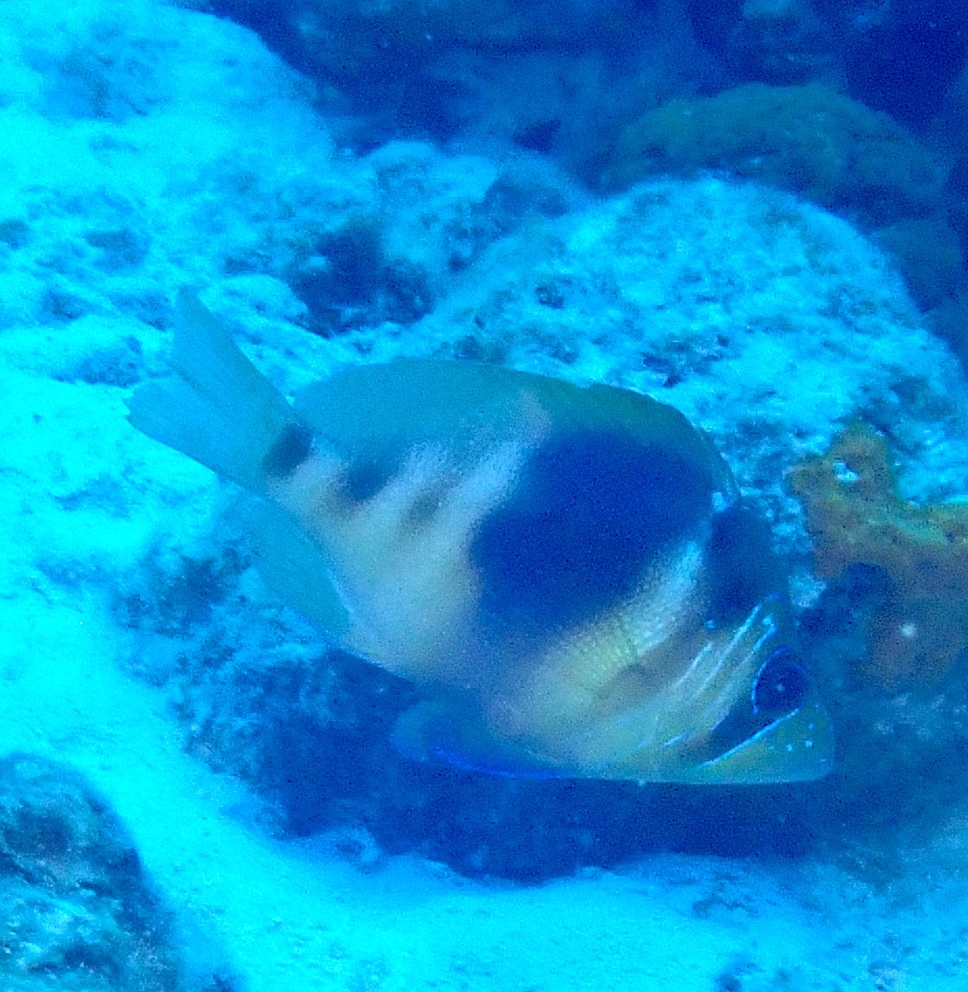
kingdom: Animalia
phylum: Chordata
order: Perciformes
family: Serranidae
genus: Hypoplectrus
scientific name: Hypoplectrus puella
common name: Barred hamlet
